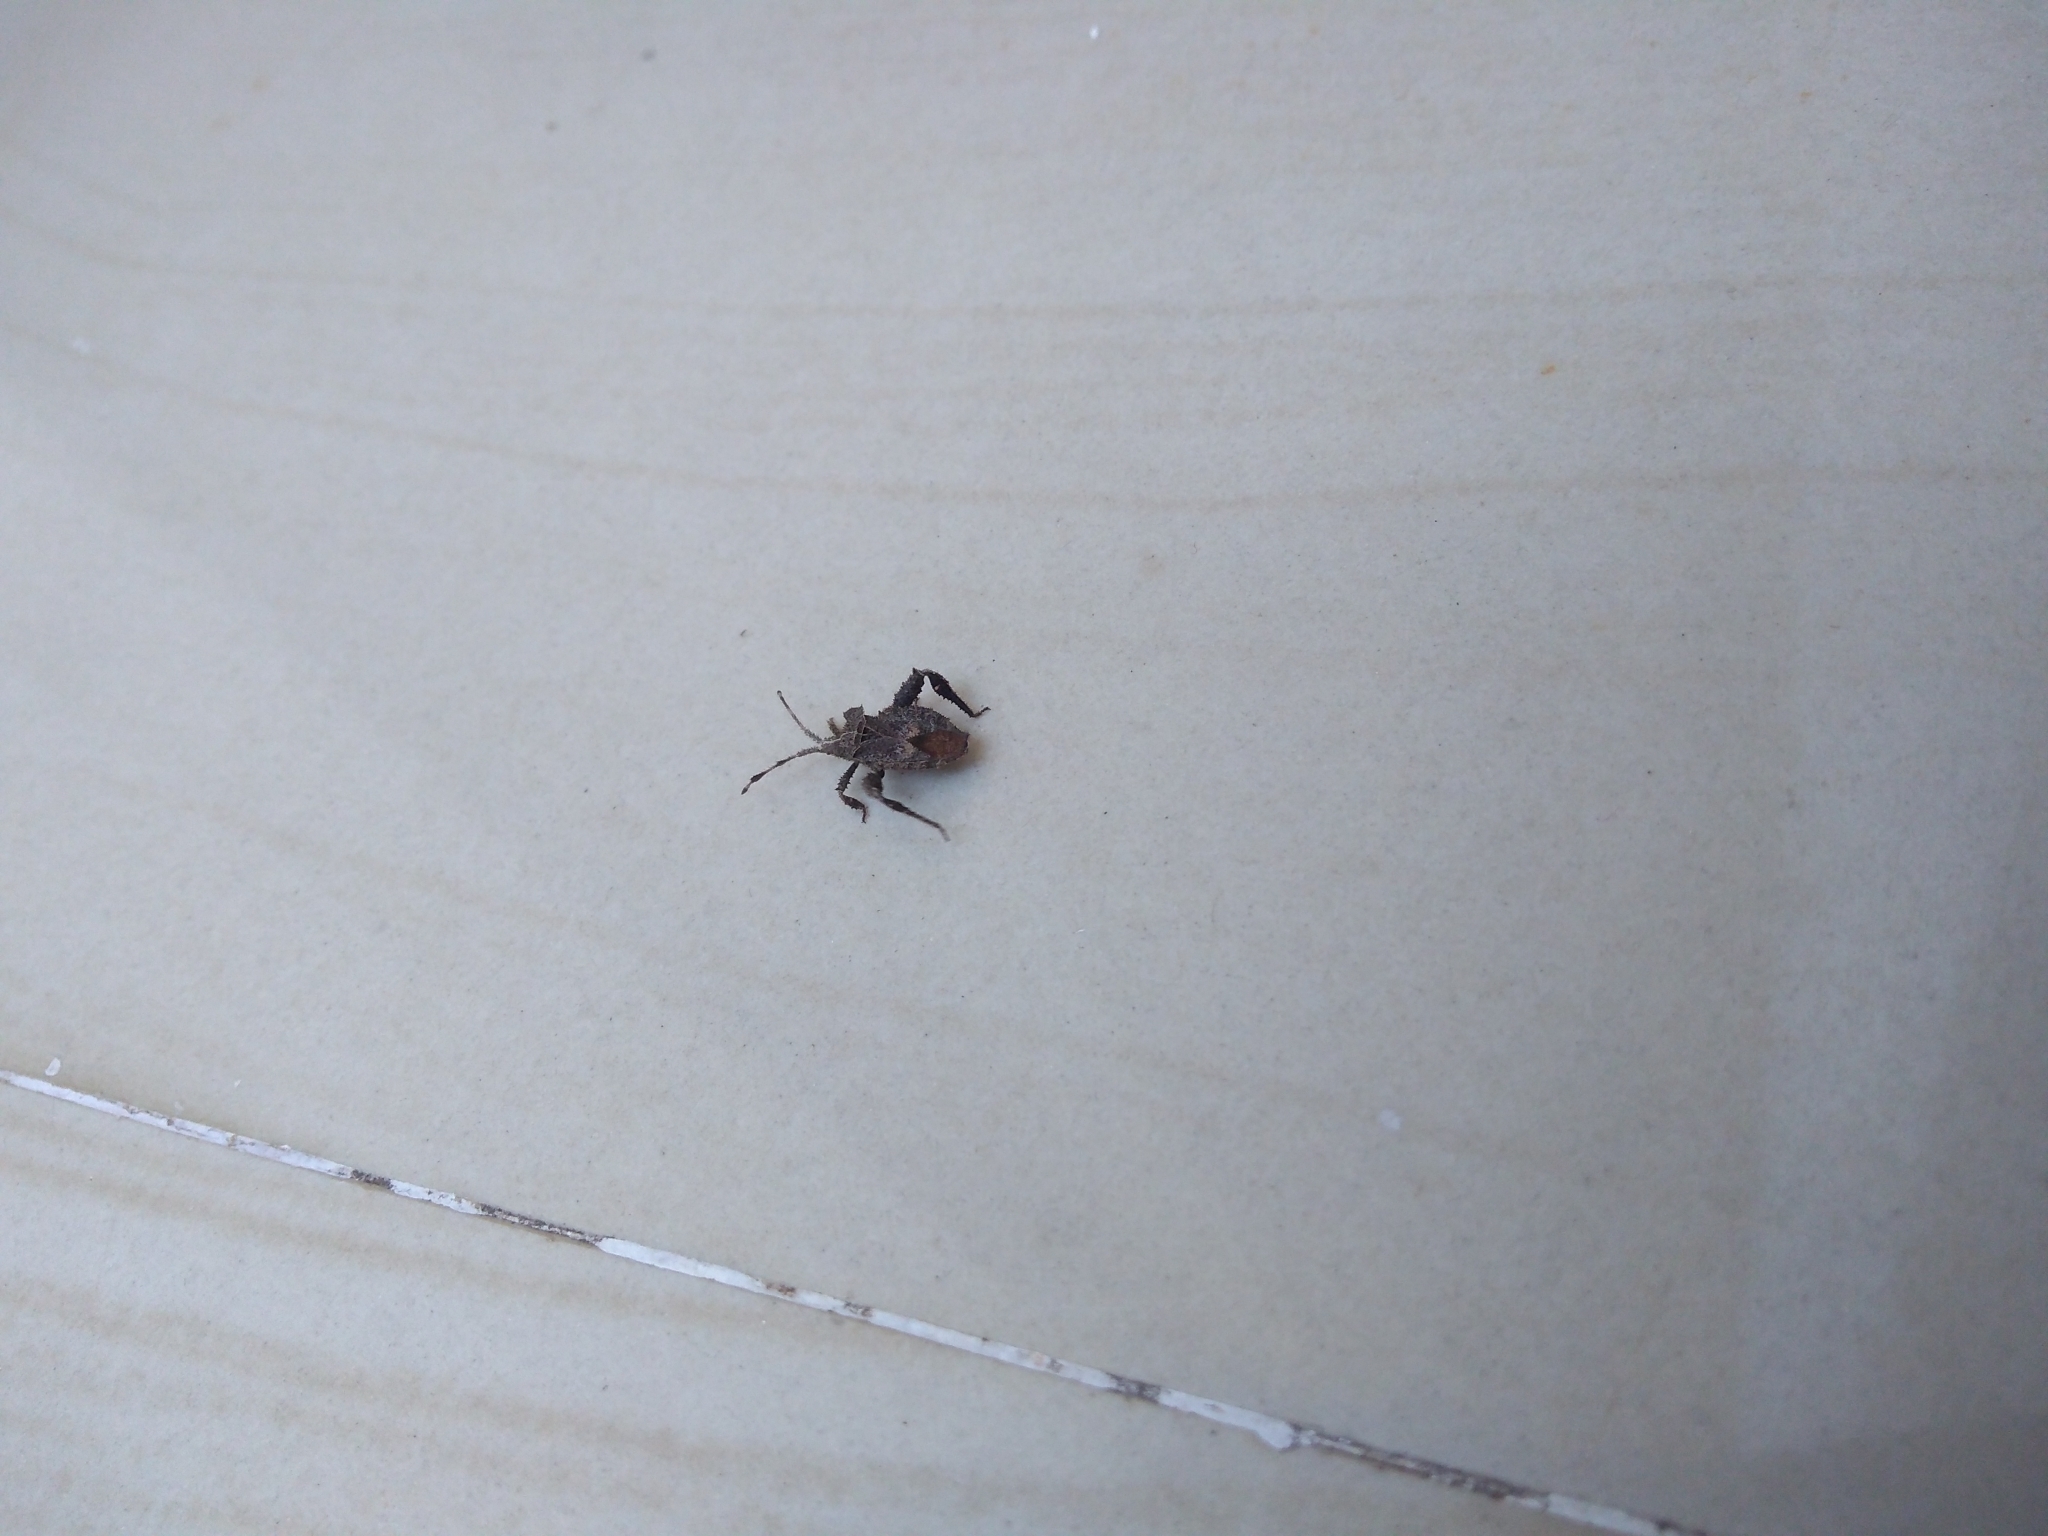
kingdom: Animalia
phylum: Arthropoda
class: Insecta
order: Hemiptera
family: Coreidae
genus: Petalocnemis
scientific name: Petalocnemis obscura
